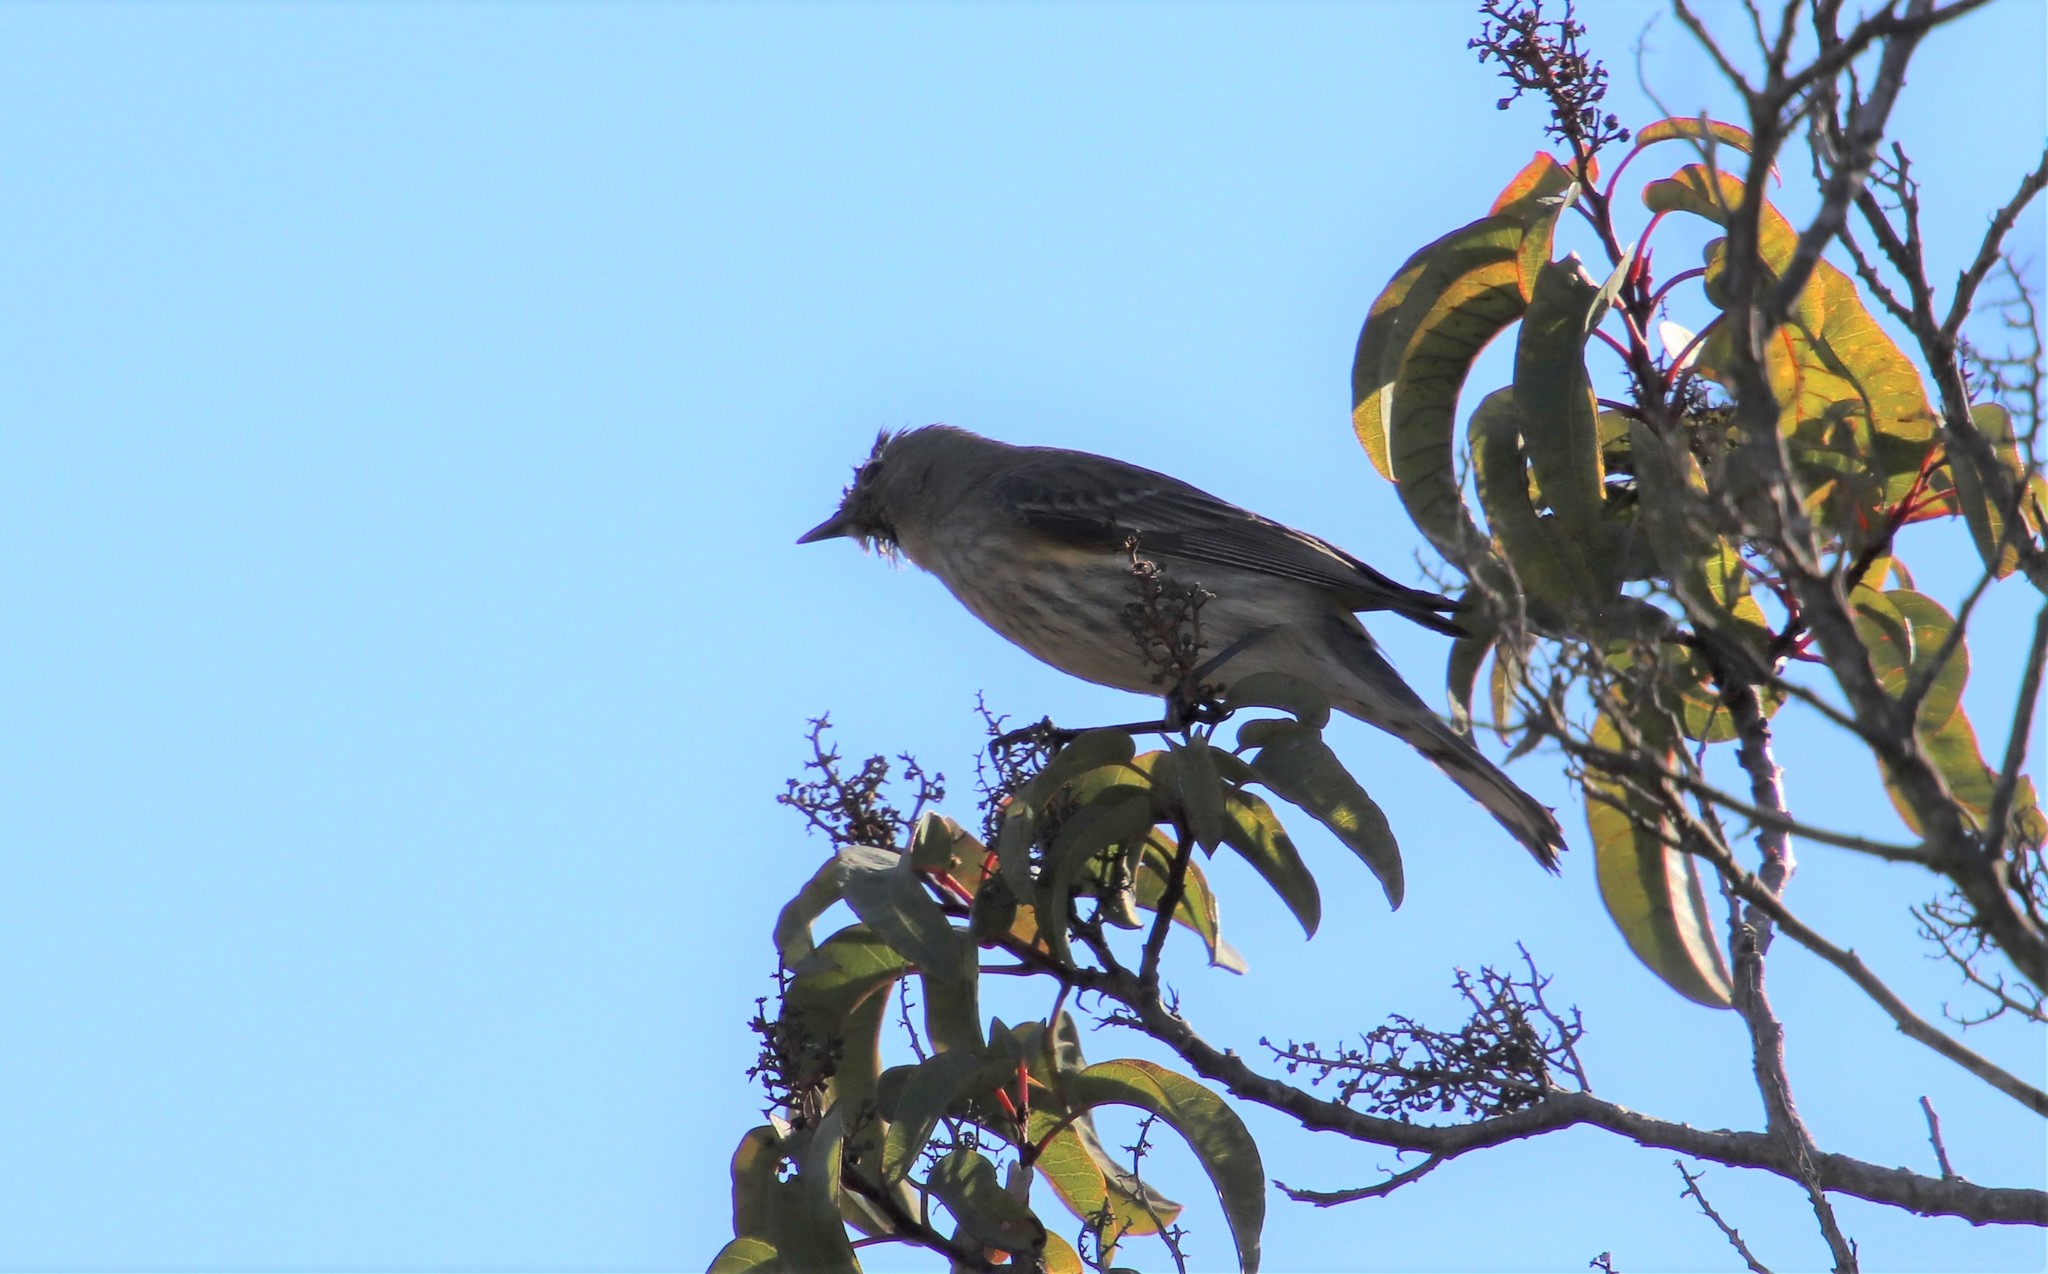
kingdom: Animalia
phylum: Chordata
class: Aves
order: Passeriformes
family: Parulidae
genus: Setophaga
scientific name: Setophaga coronata
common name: Myrtle warbler
